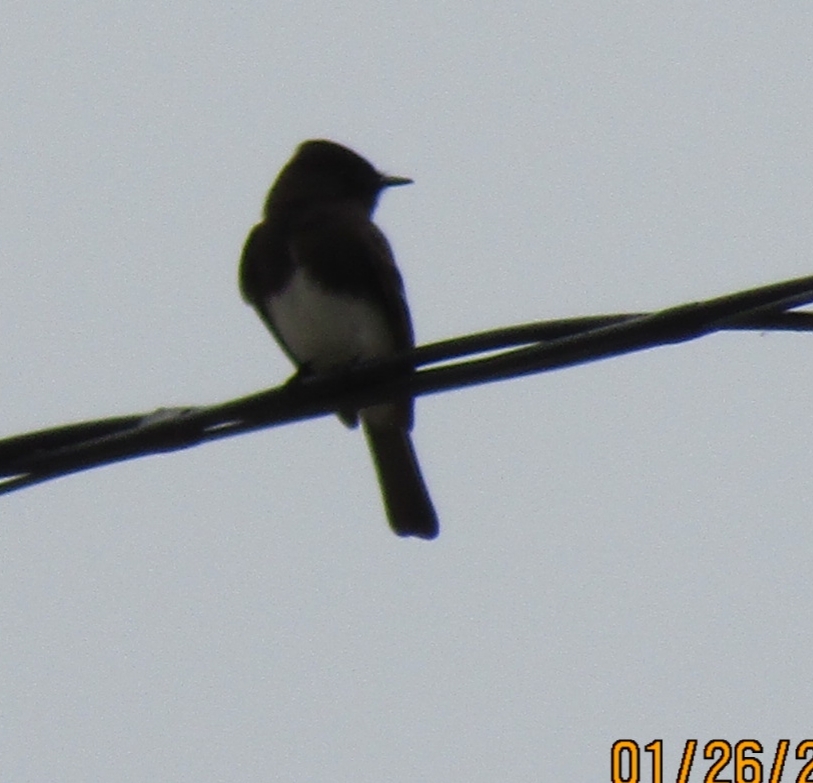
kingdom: Animalia
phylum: Chordata
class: Aves
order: Passeriformes
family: Tyrannidae
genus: Sayornis
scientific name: Sayornis nigricans
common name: Black phoebe
